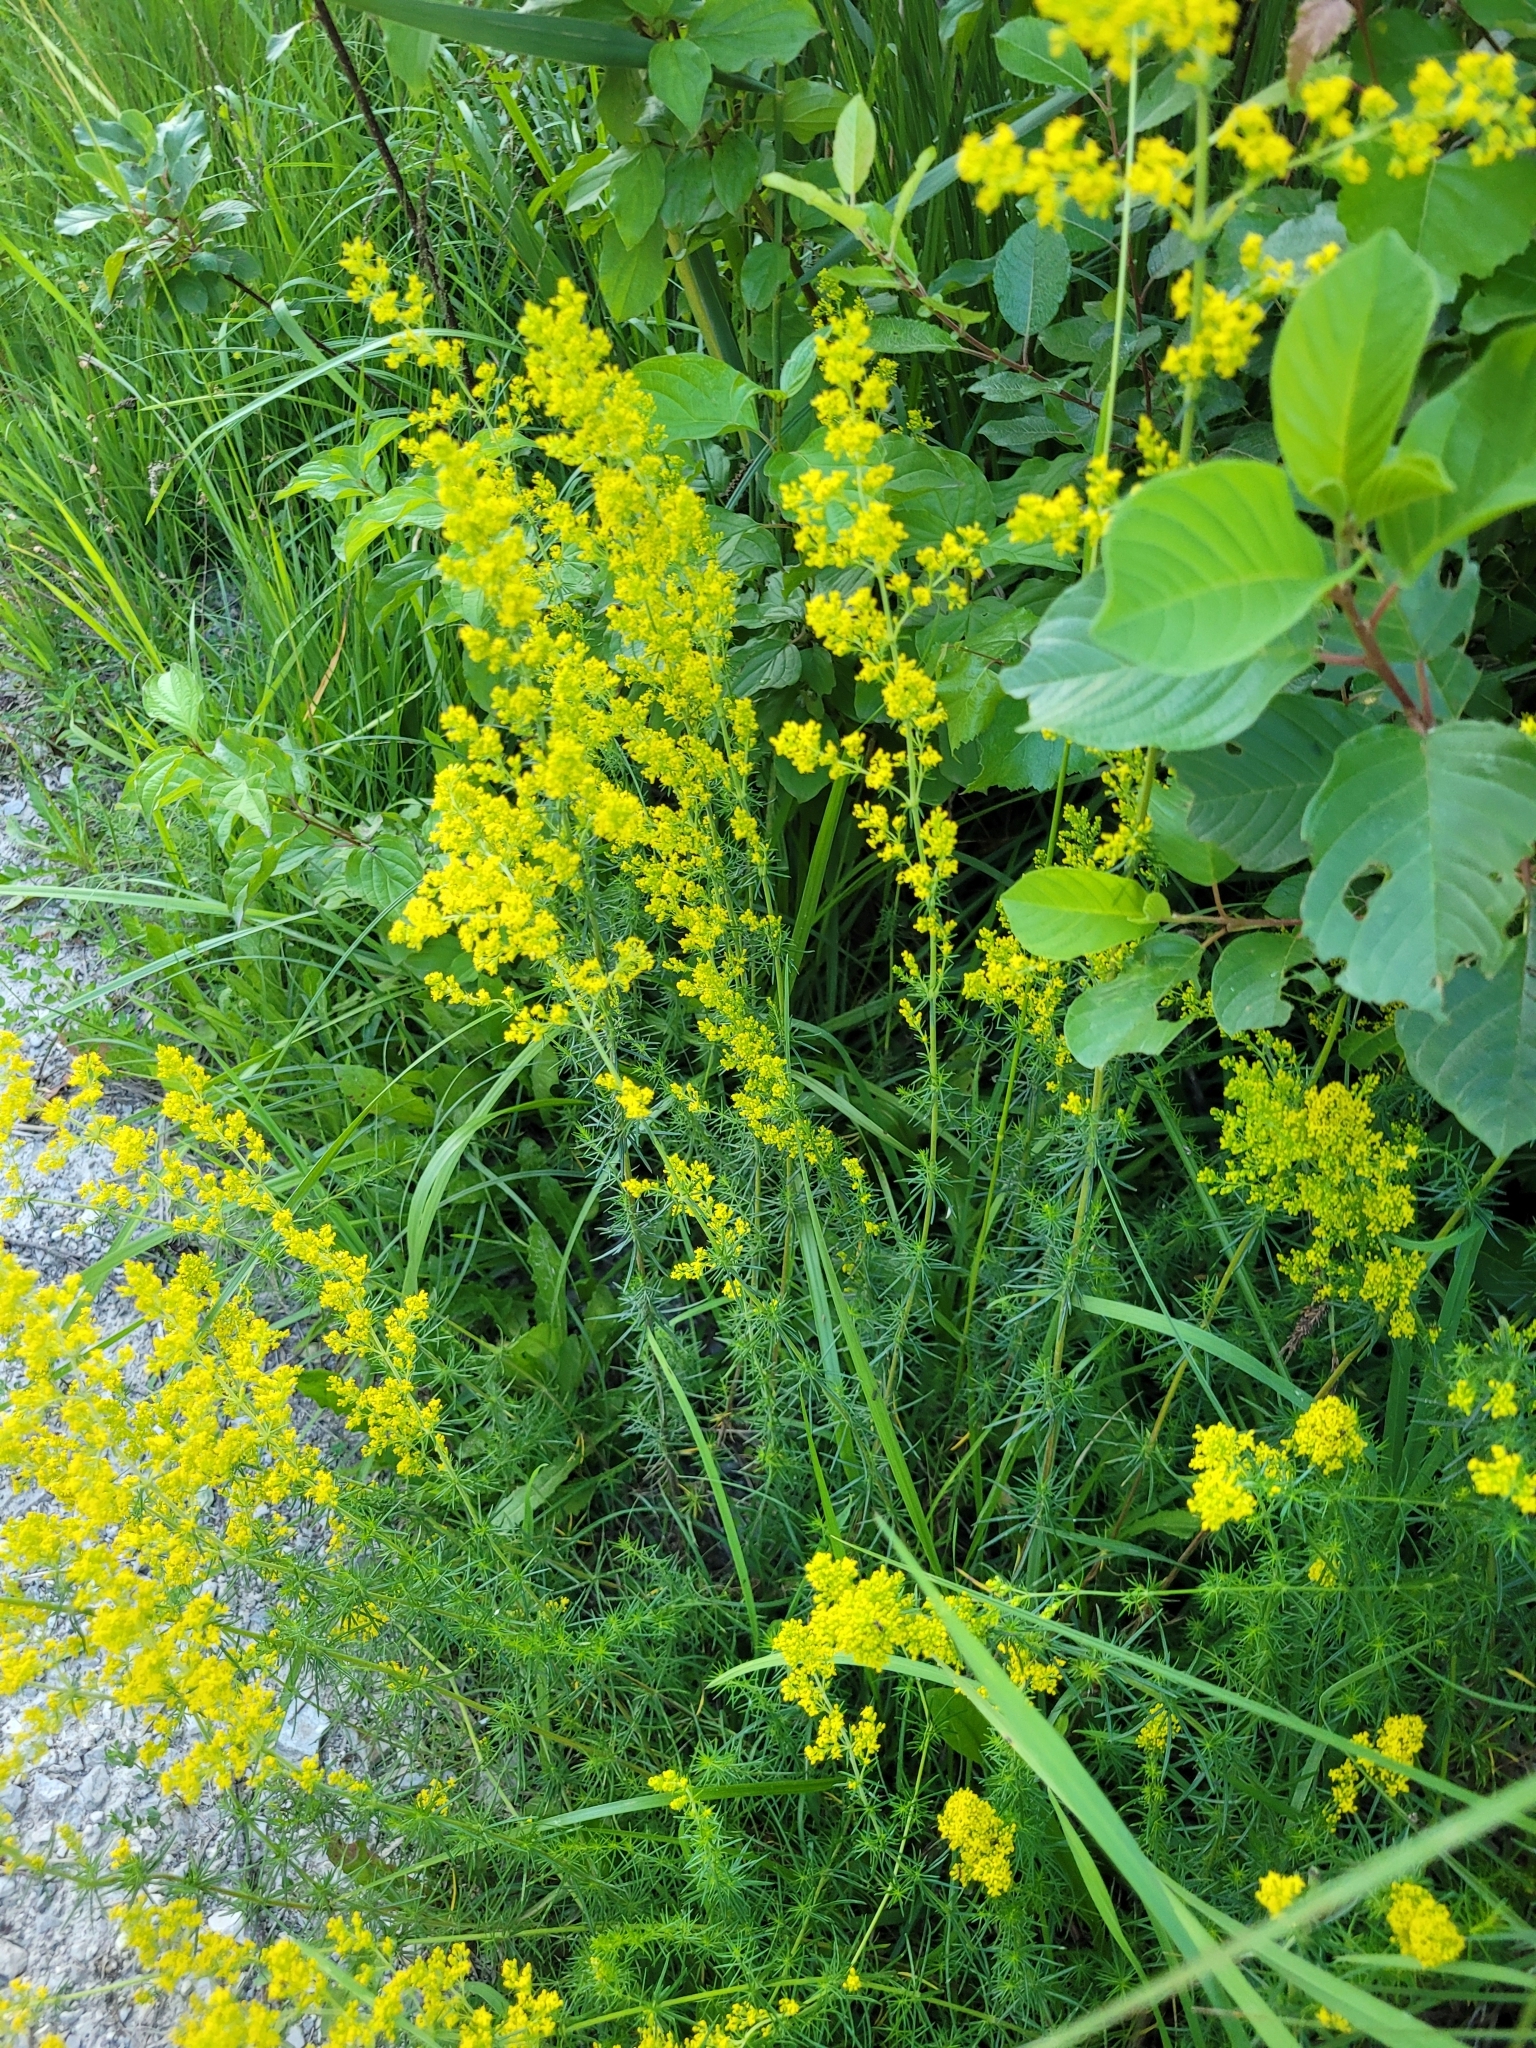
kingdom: Plantae
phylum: Tracheophyta
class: Magnoliopsida
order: Gentianales
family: Rubiaceae
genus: Galium
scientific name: Galium verum
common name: Lady's bedstraw
